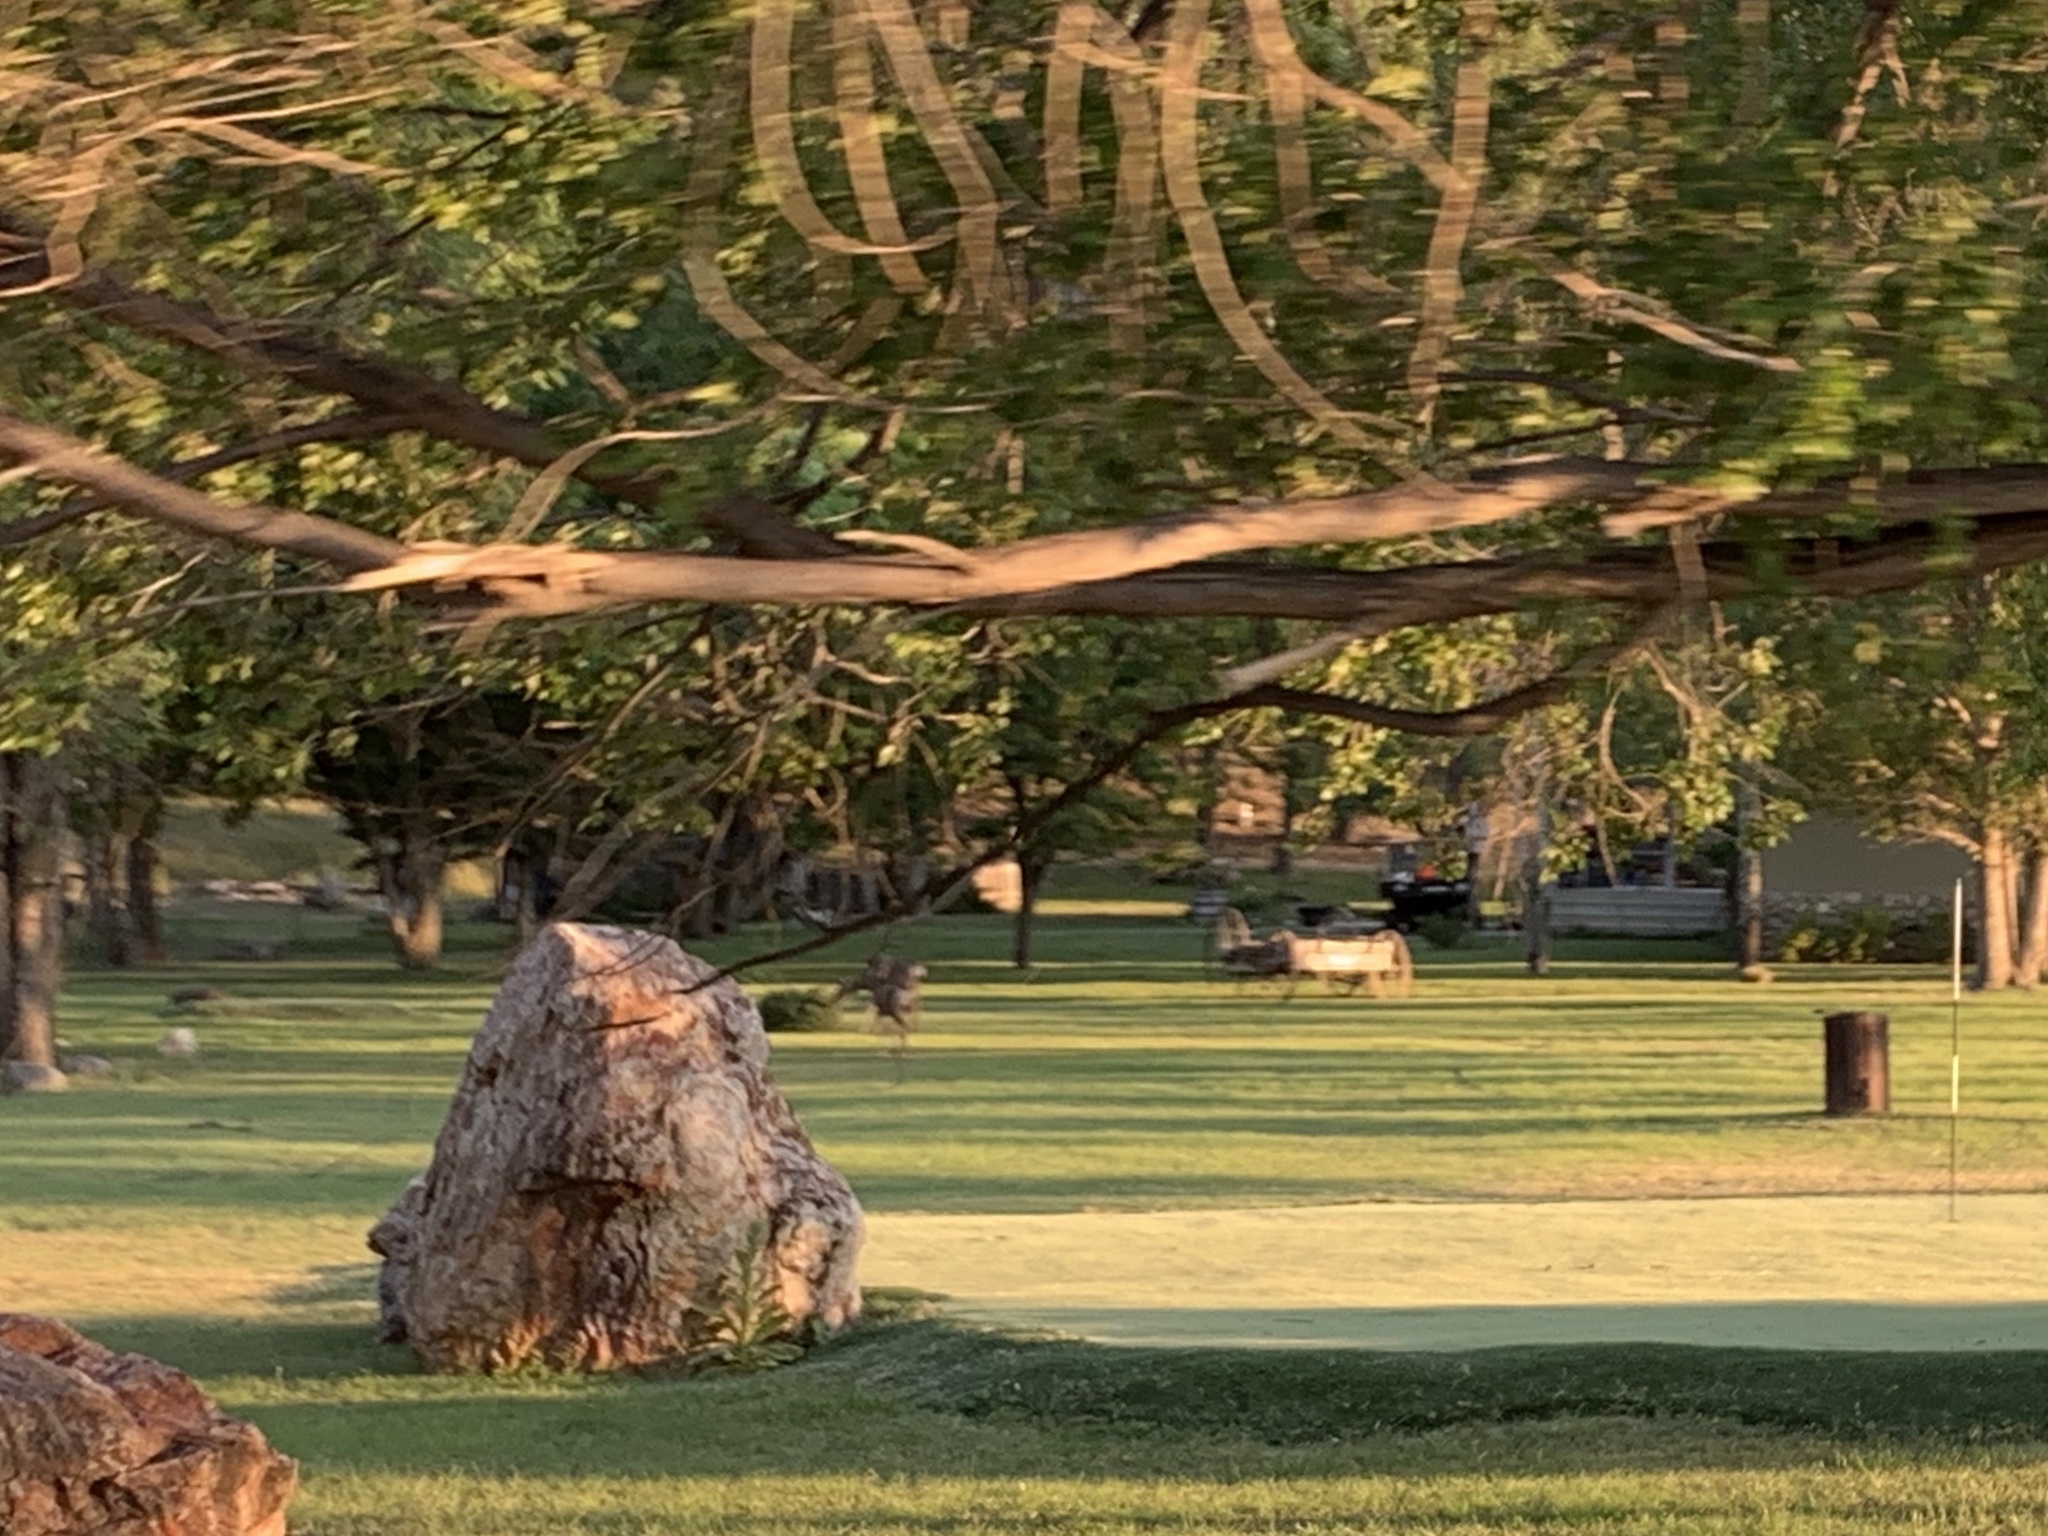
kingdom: Animalia
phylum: Chordata
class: Mammalia
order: Artiodactyla
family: Cervidae
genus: Odocoileus
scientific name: Odocoileus hemionus
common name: Mule deer
